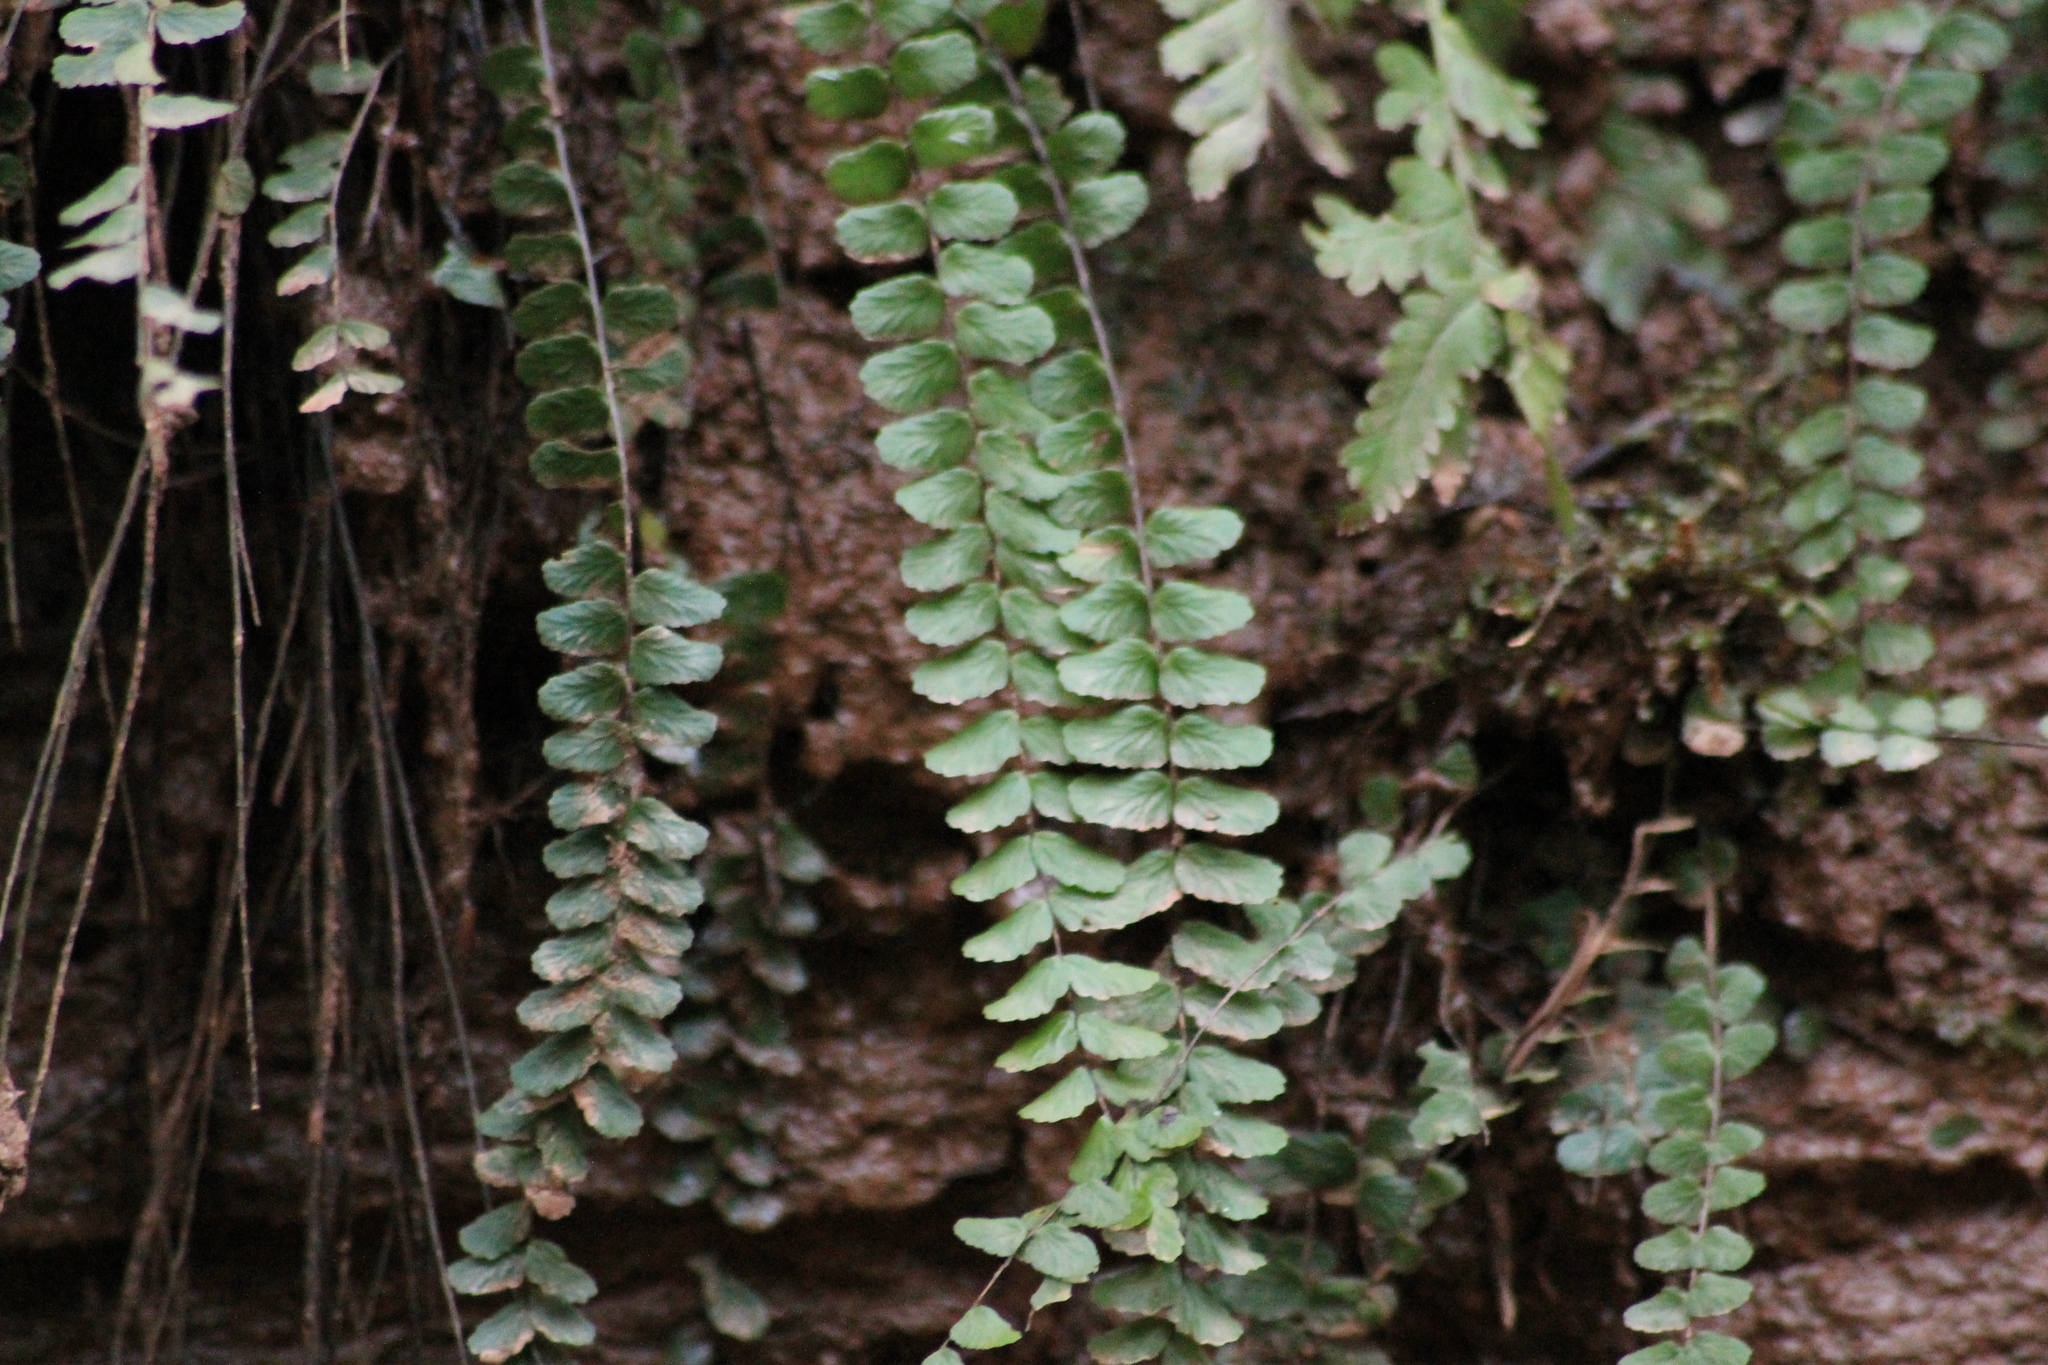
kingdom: Plantae
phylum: Tracheophyta
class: Polypodiopsida
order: Polypodiales
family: Aspleniaceae
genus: Asplenium
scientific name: Asplenium trichomanes
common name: Maidenhair spleenwort
